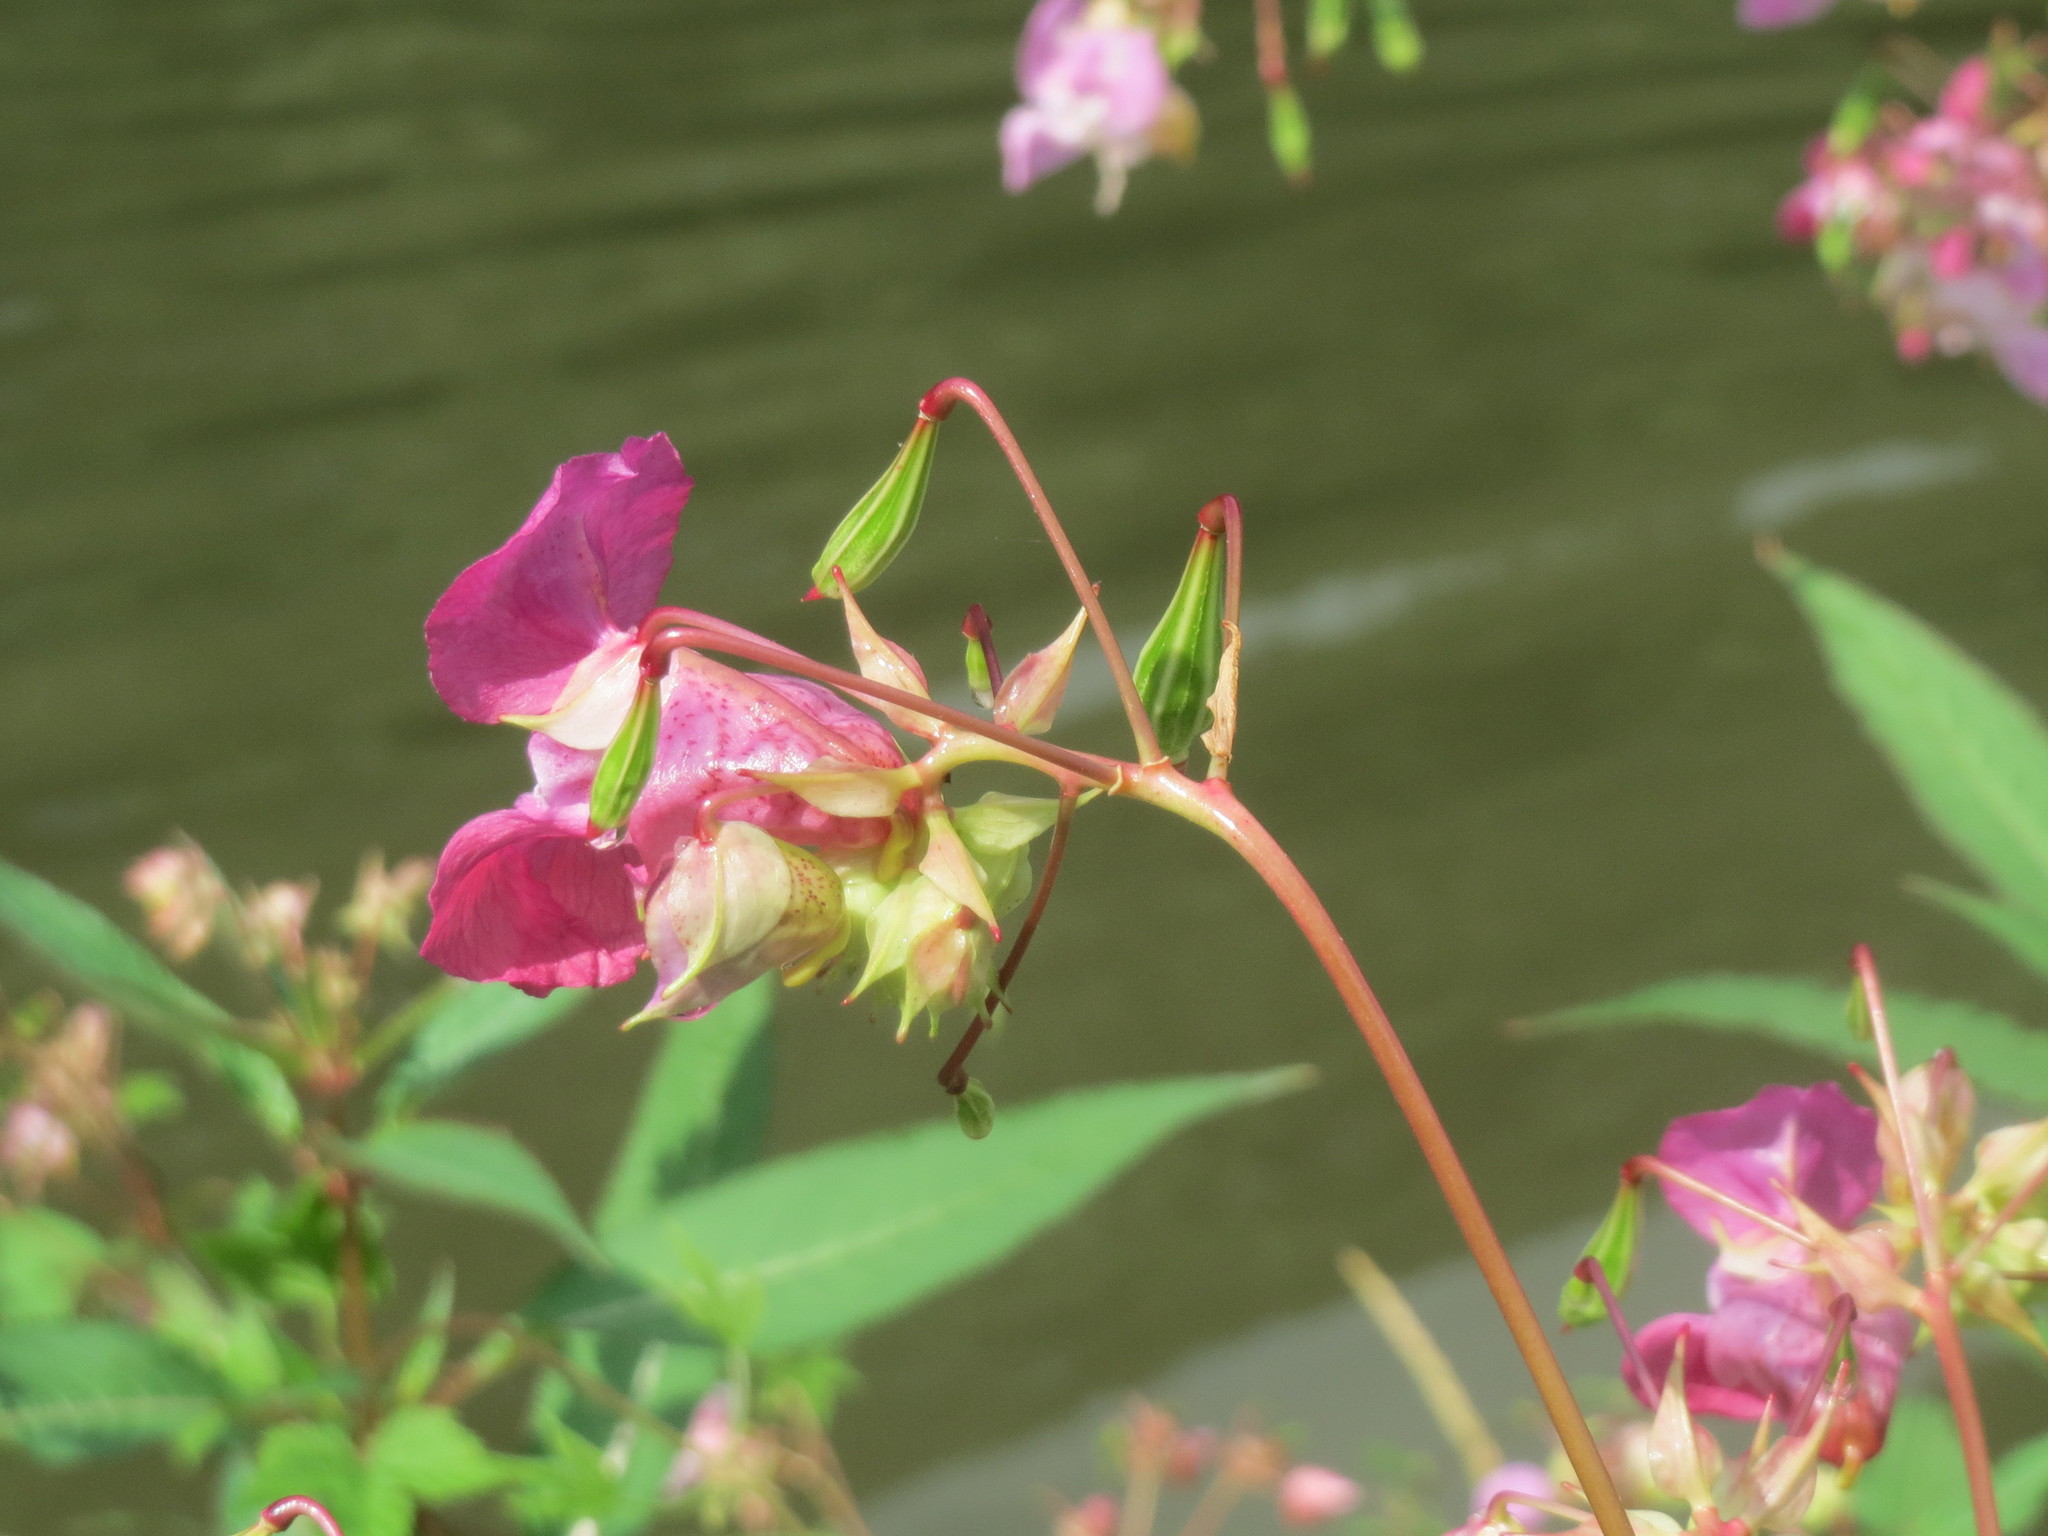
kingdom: Plantae
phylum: Tracheophyta
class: Magnoliopsida
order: Ericales
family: Balsaminaceae
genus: Impatiens
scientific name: Impatiens glandulifera
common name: Himalayan balsam
